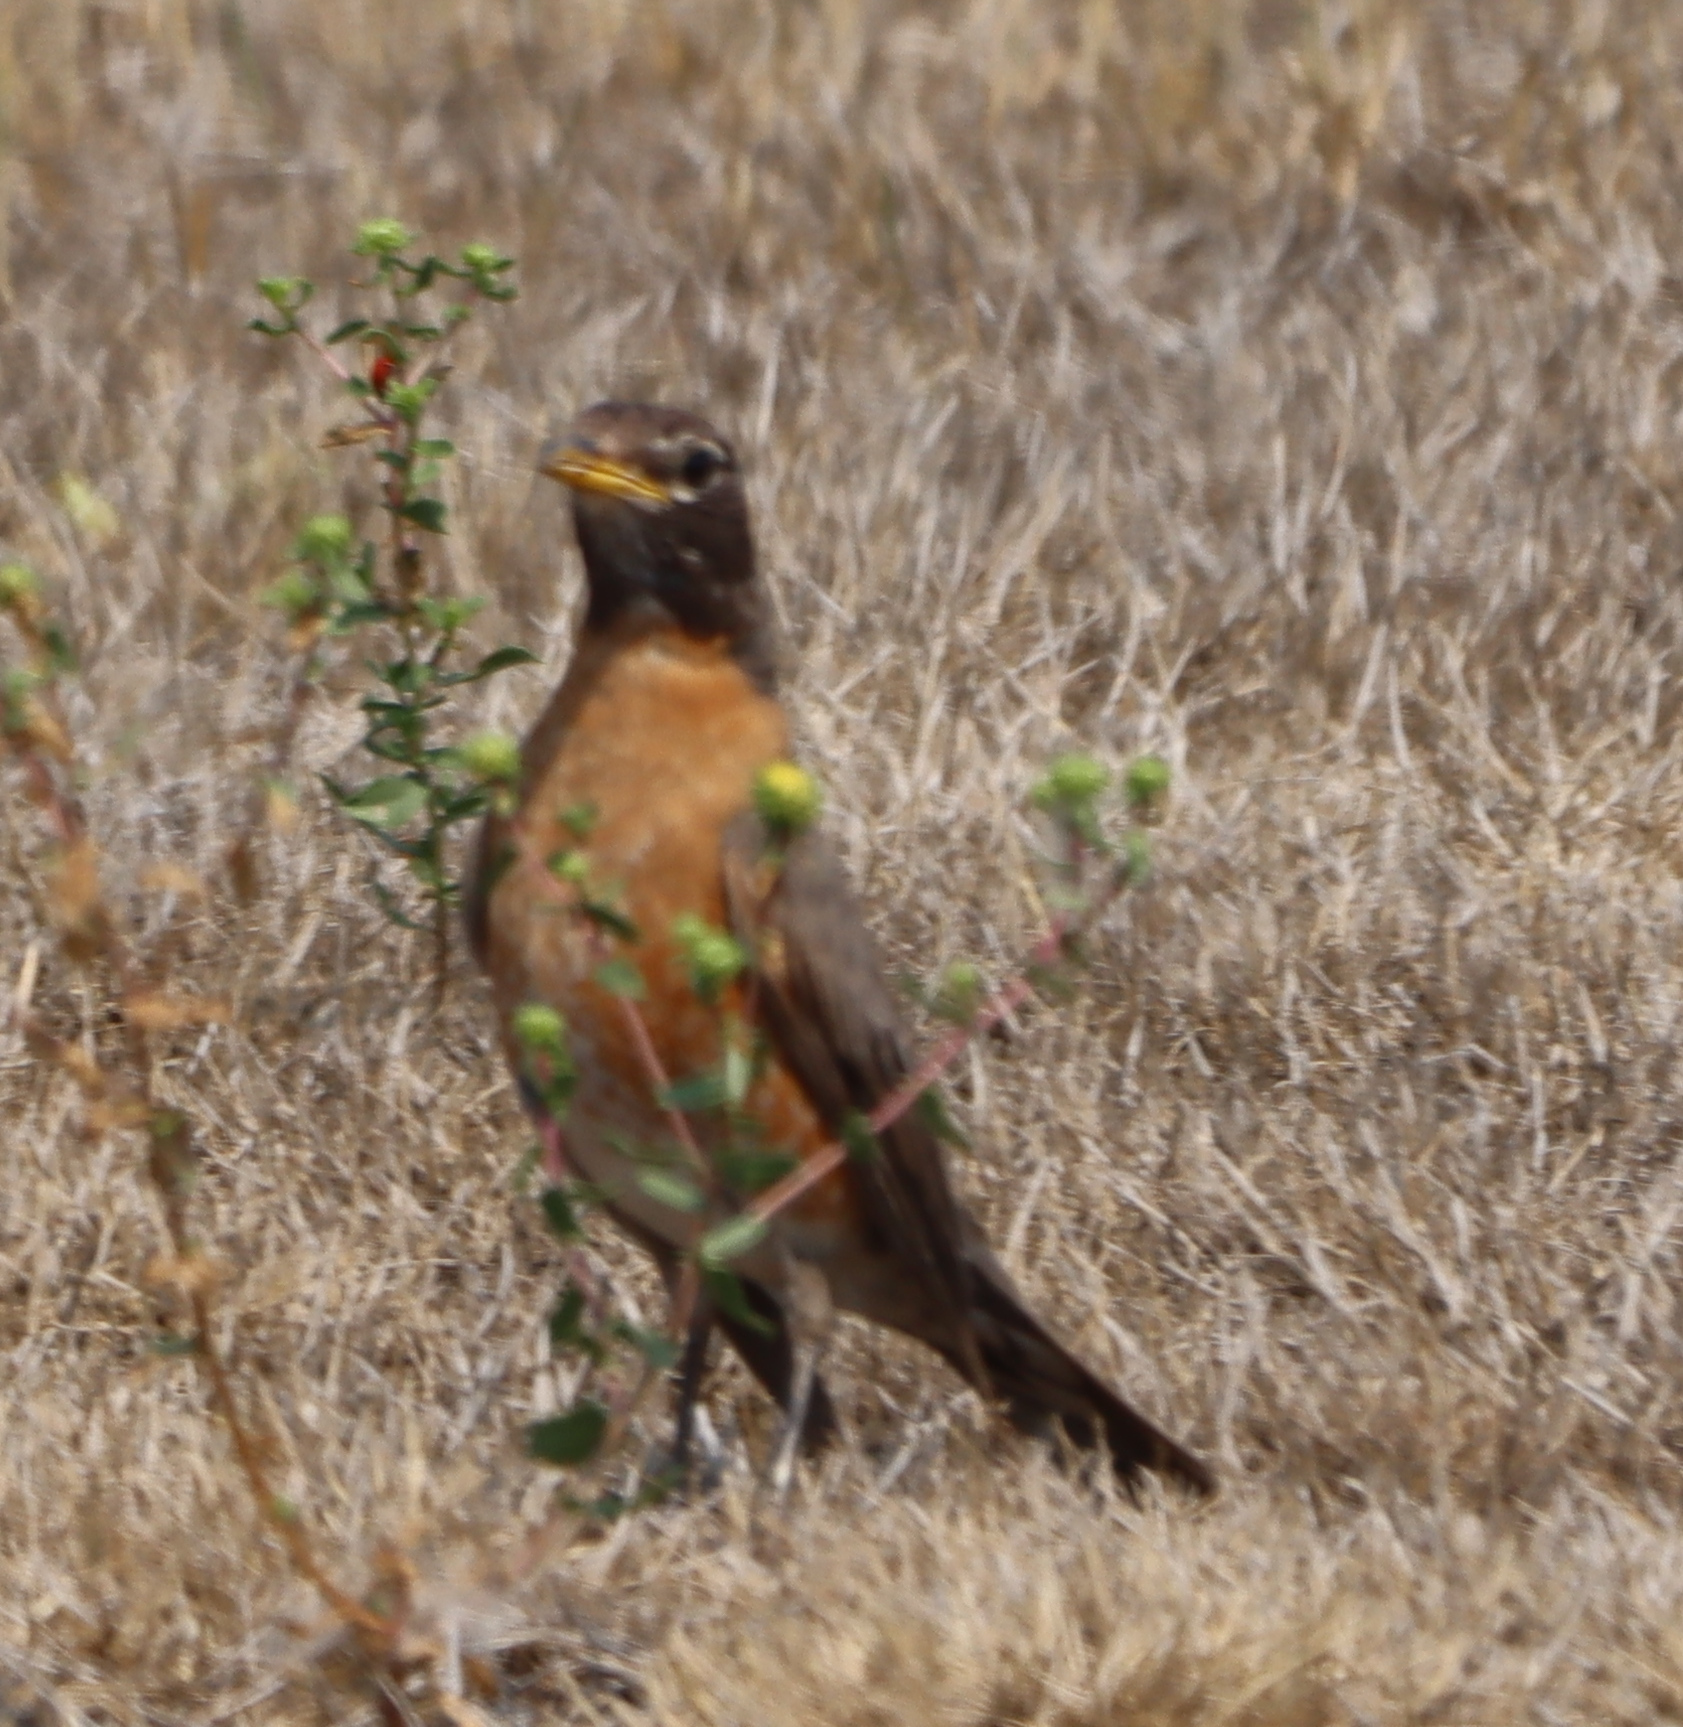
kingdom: Animalia
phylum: Chordata
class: Aves
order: Passeriformes
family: Turdidae
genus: Turdus
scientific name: Turdus migratorius
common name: American robin
